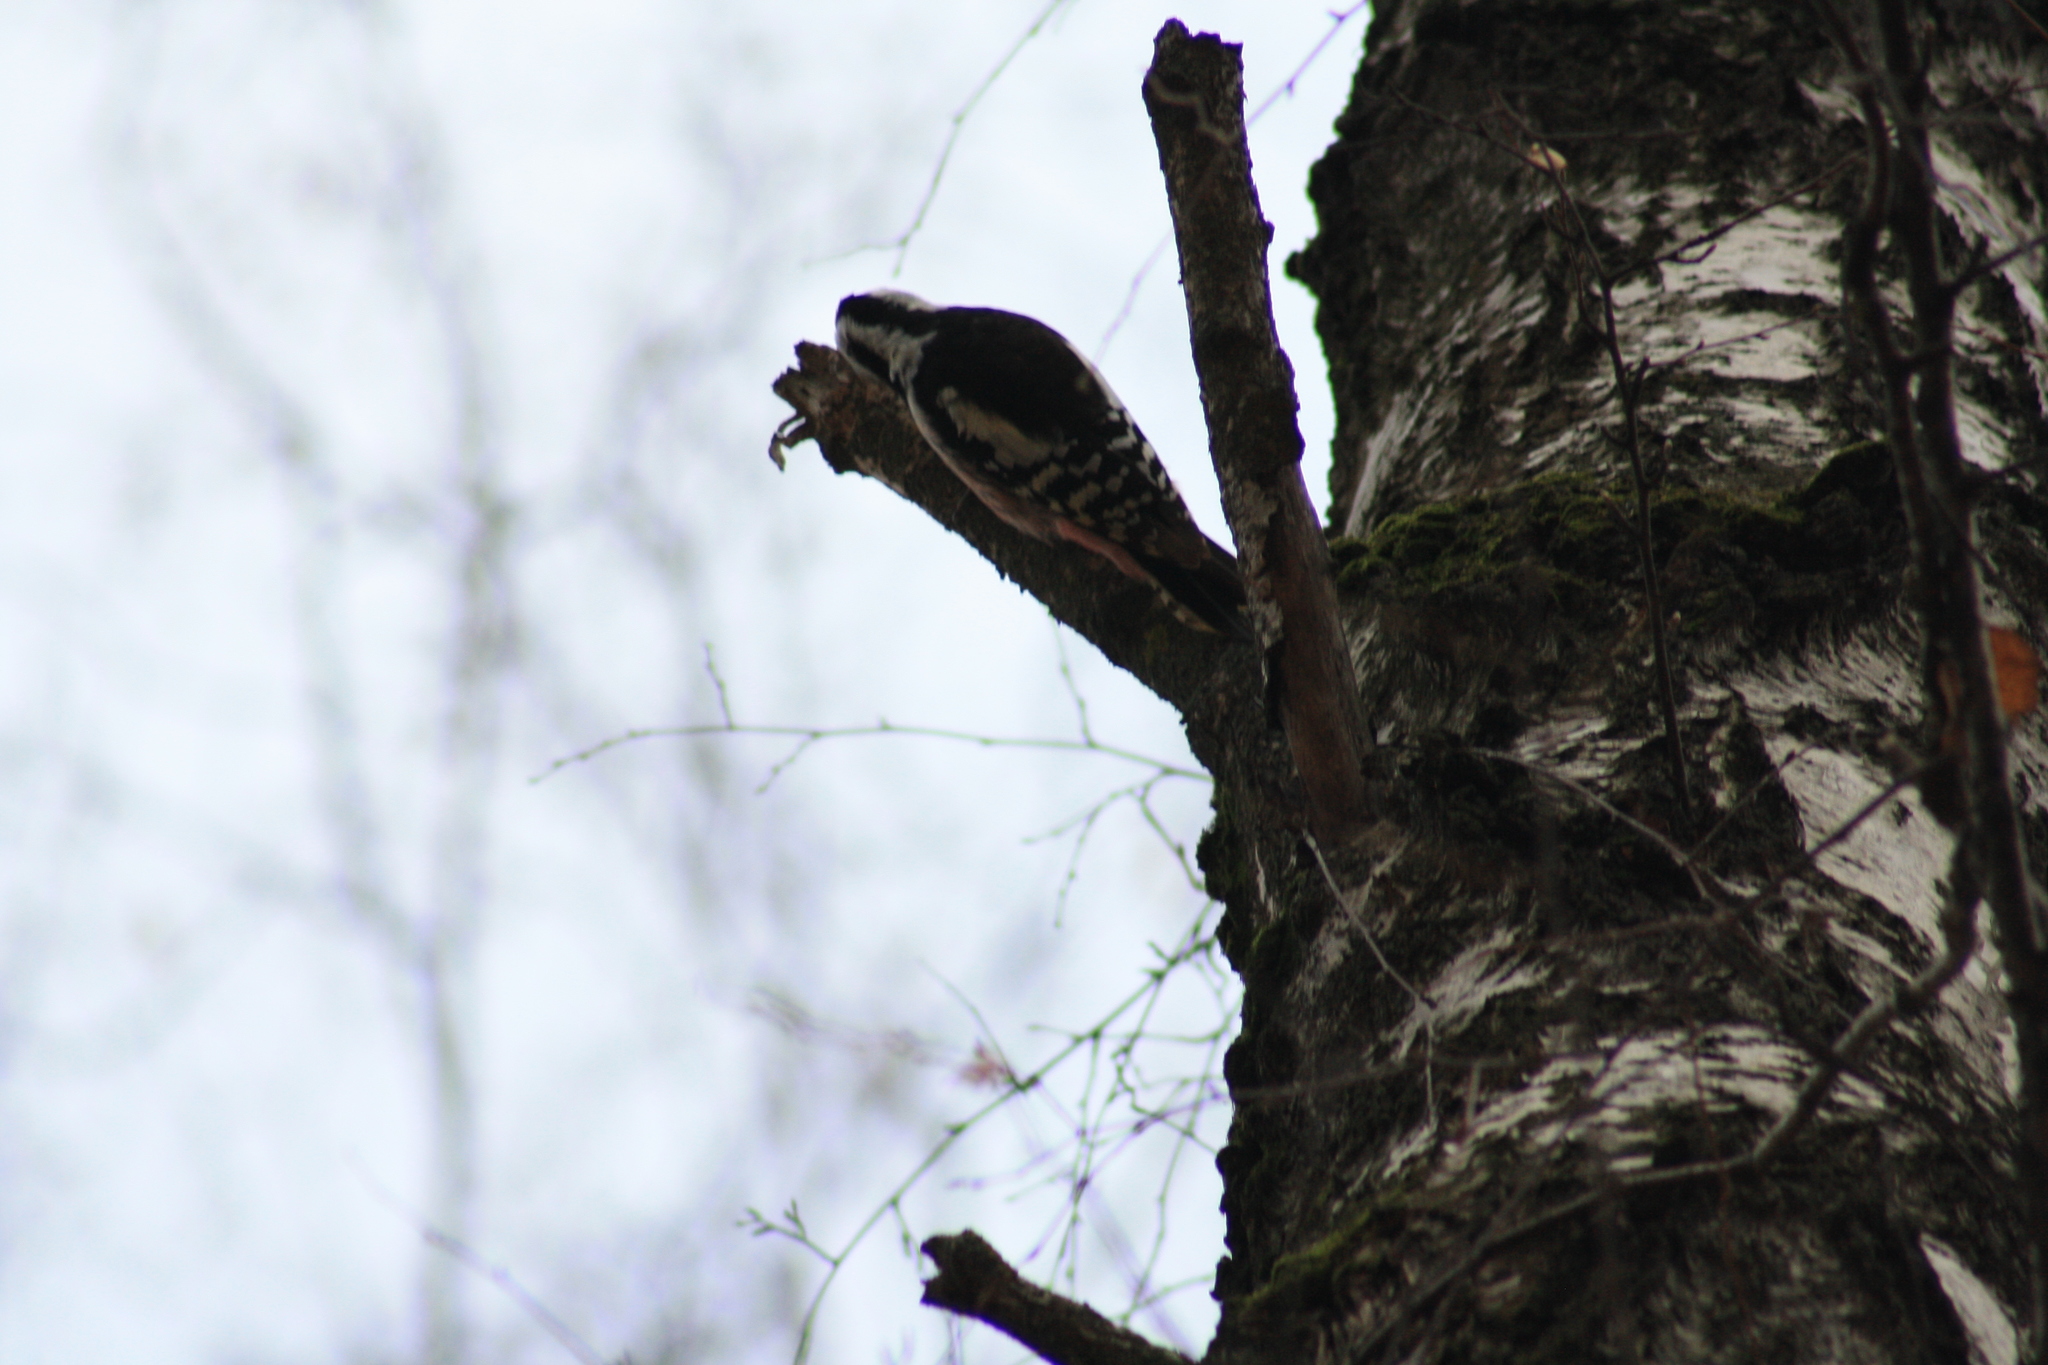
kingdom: Animalia
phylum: Chordata
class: Aves
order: Piciformes
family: Picidae
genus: Dendrocoptes
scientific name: Dendrocoptes medius
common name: Middle spotted woodpecker
